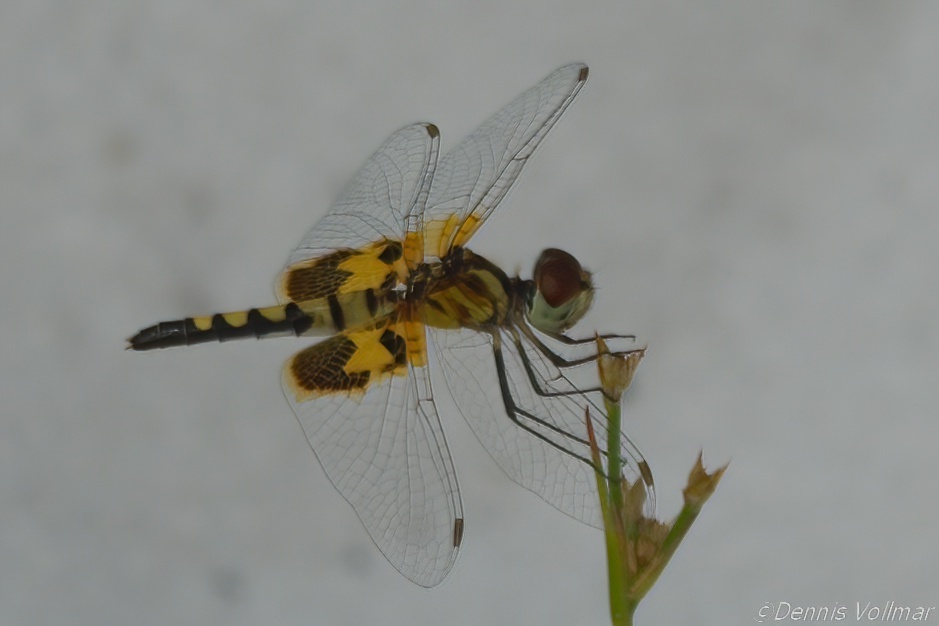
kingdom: Animalia
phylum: Arthropoda
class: Insecta
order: Odonata
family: Libellulidae
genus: Celithemis
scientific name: Celithemis amanda
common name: Amanda's pennant
